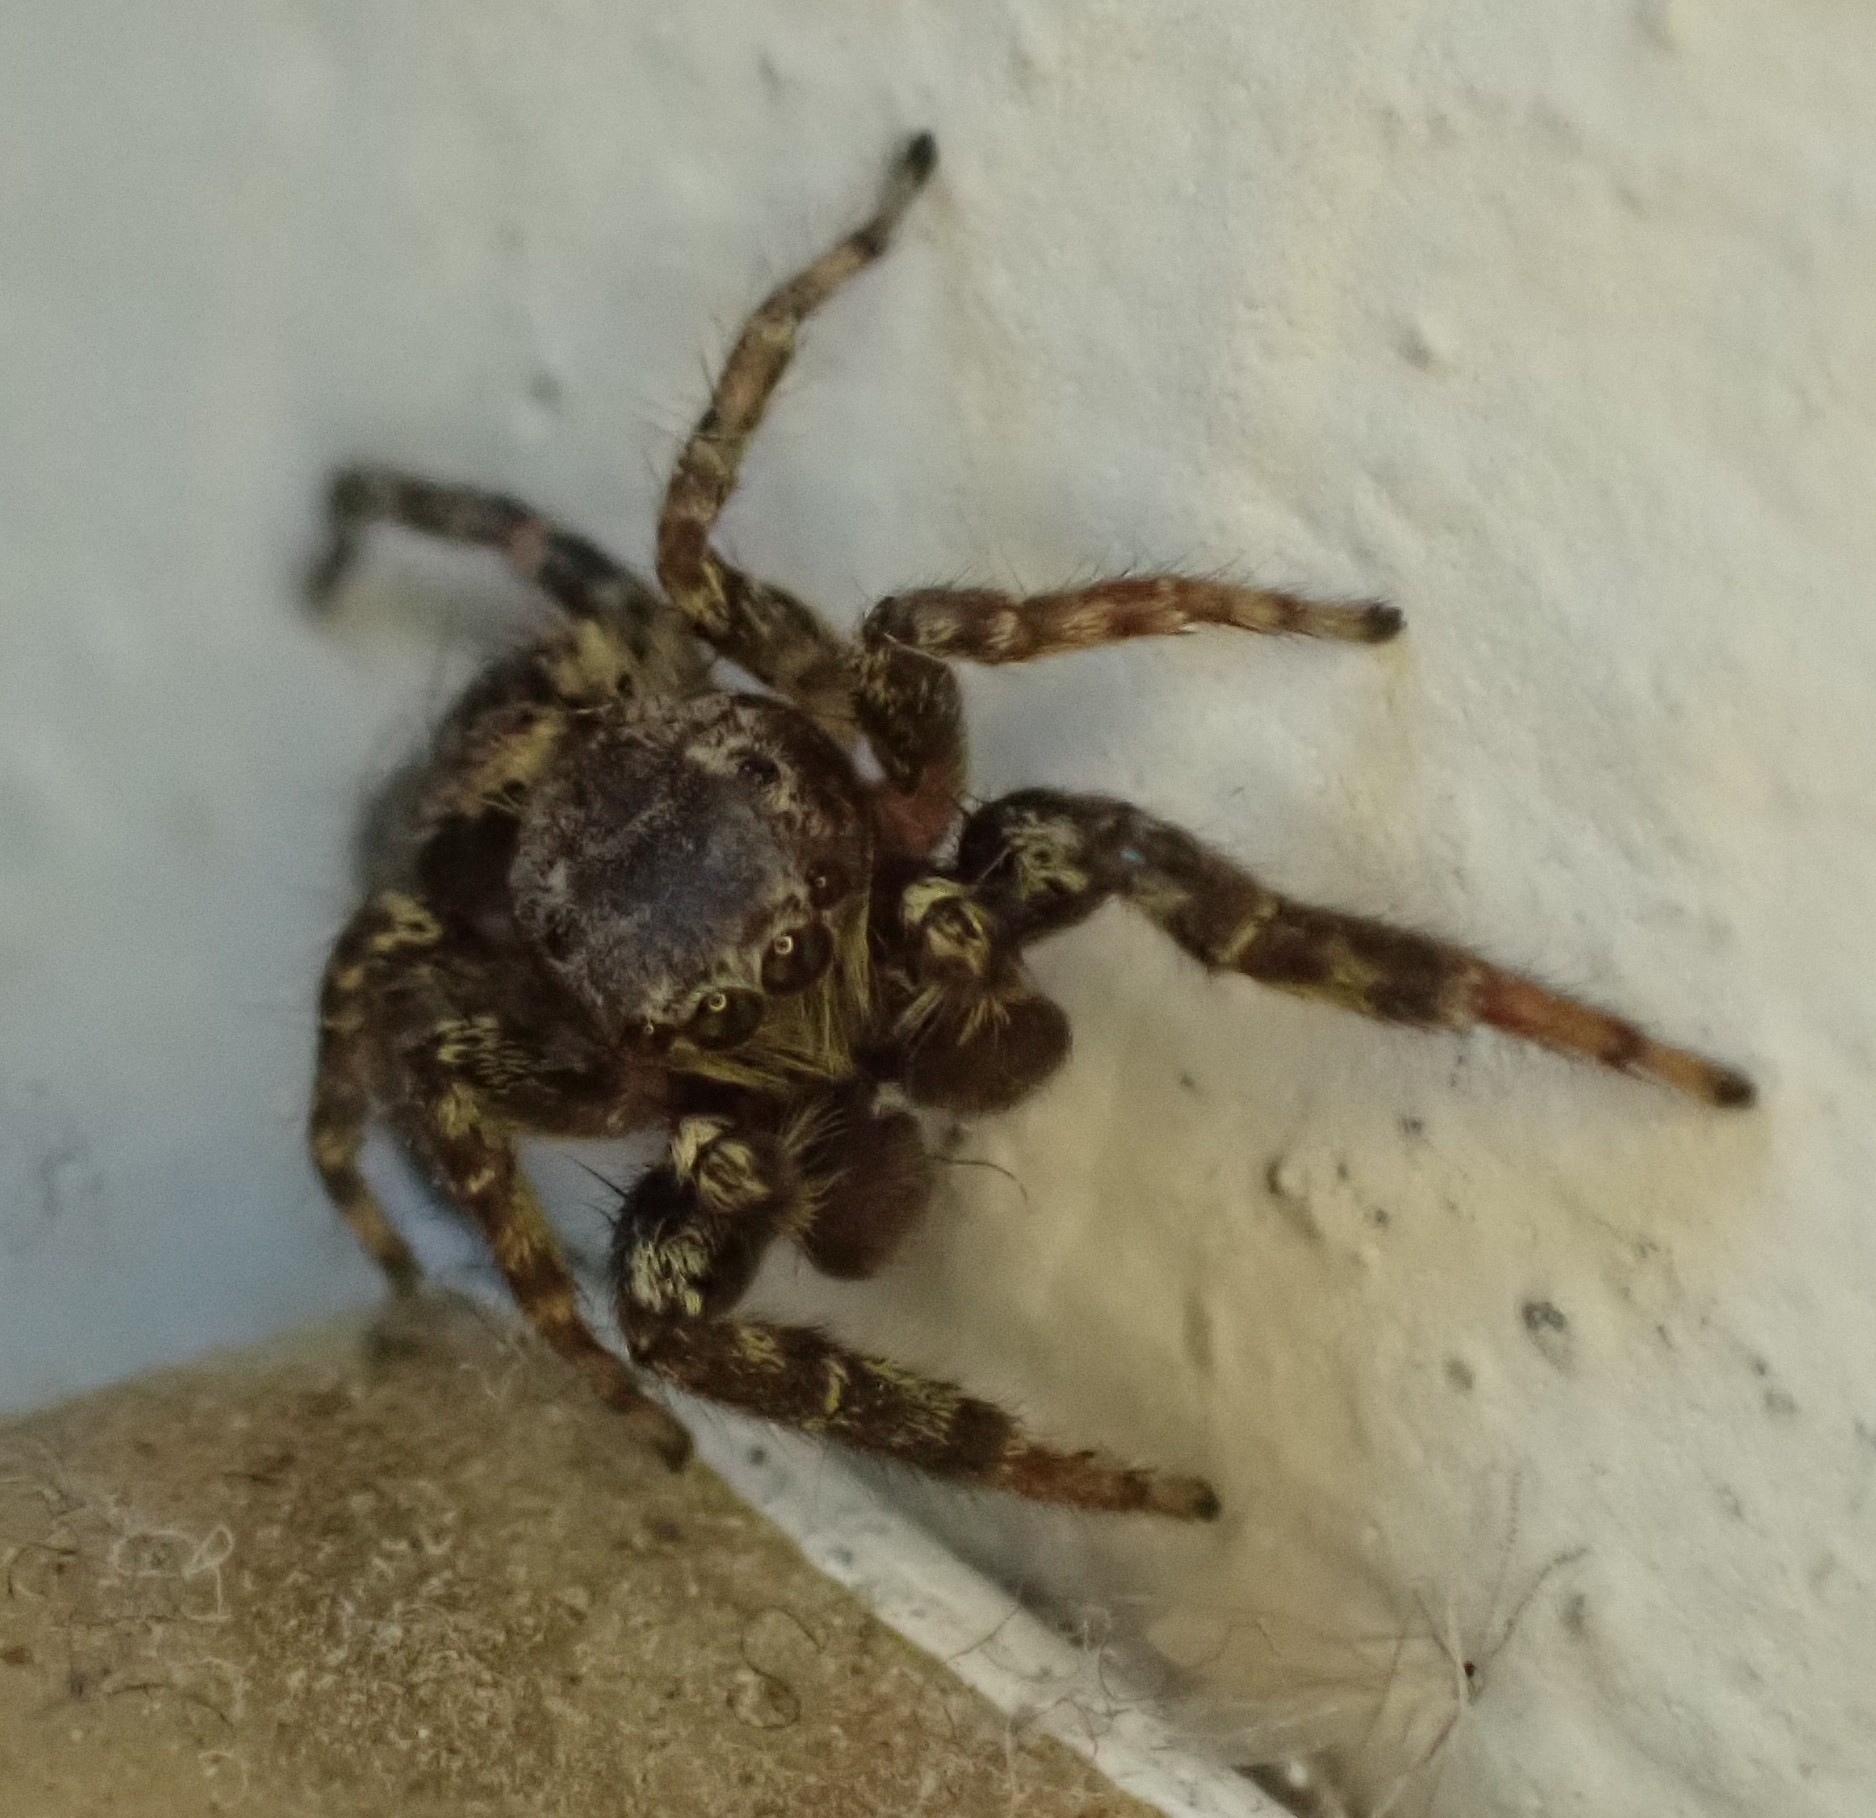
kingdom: Animalia
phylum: Arthropoda
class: Arachnida
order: Araneae
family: Salticidae
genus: Marpissa
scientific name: Marpissa muscosa
